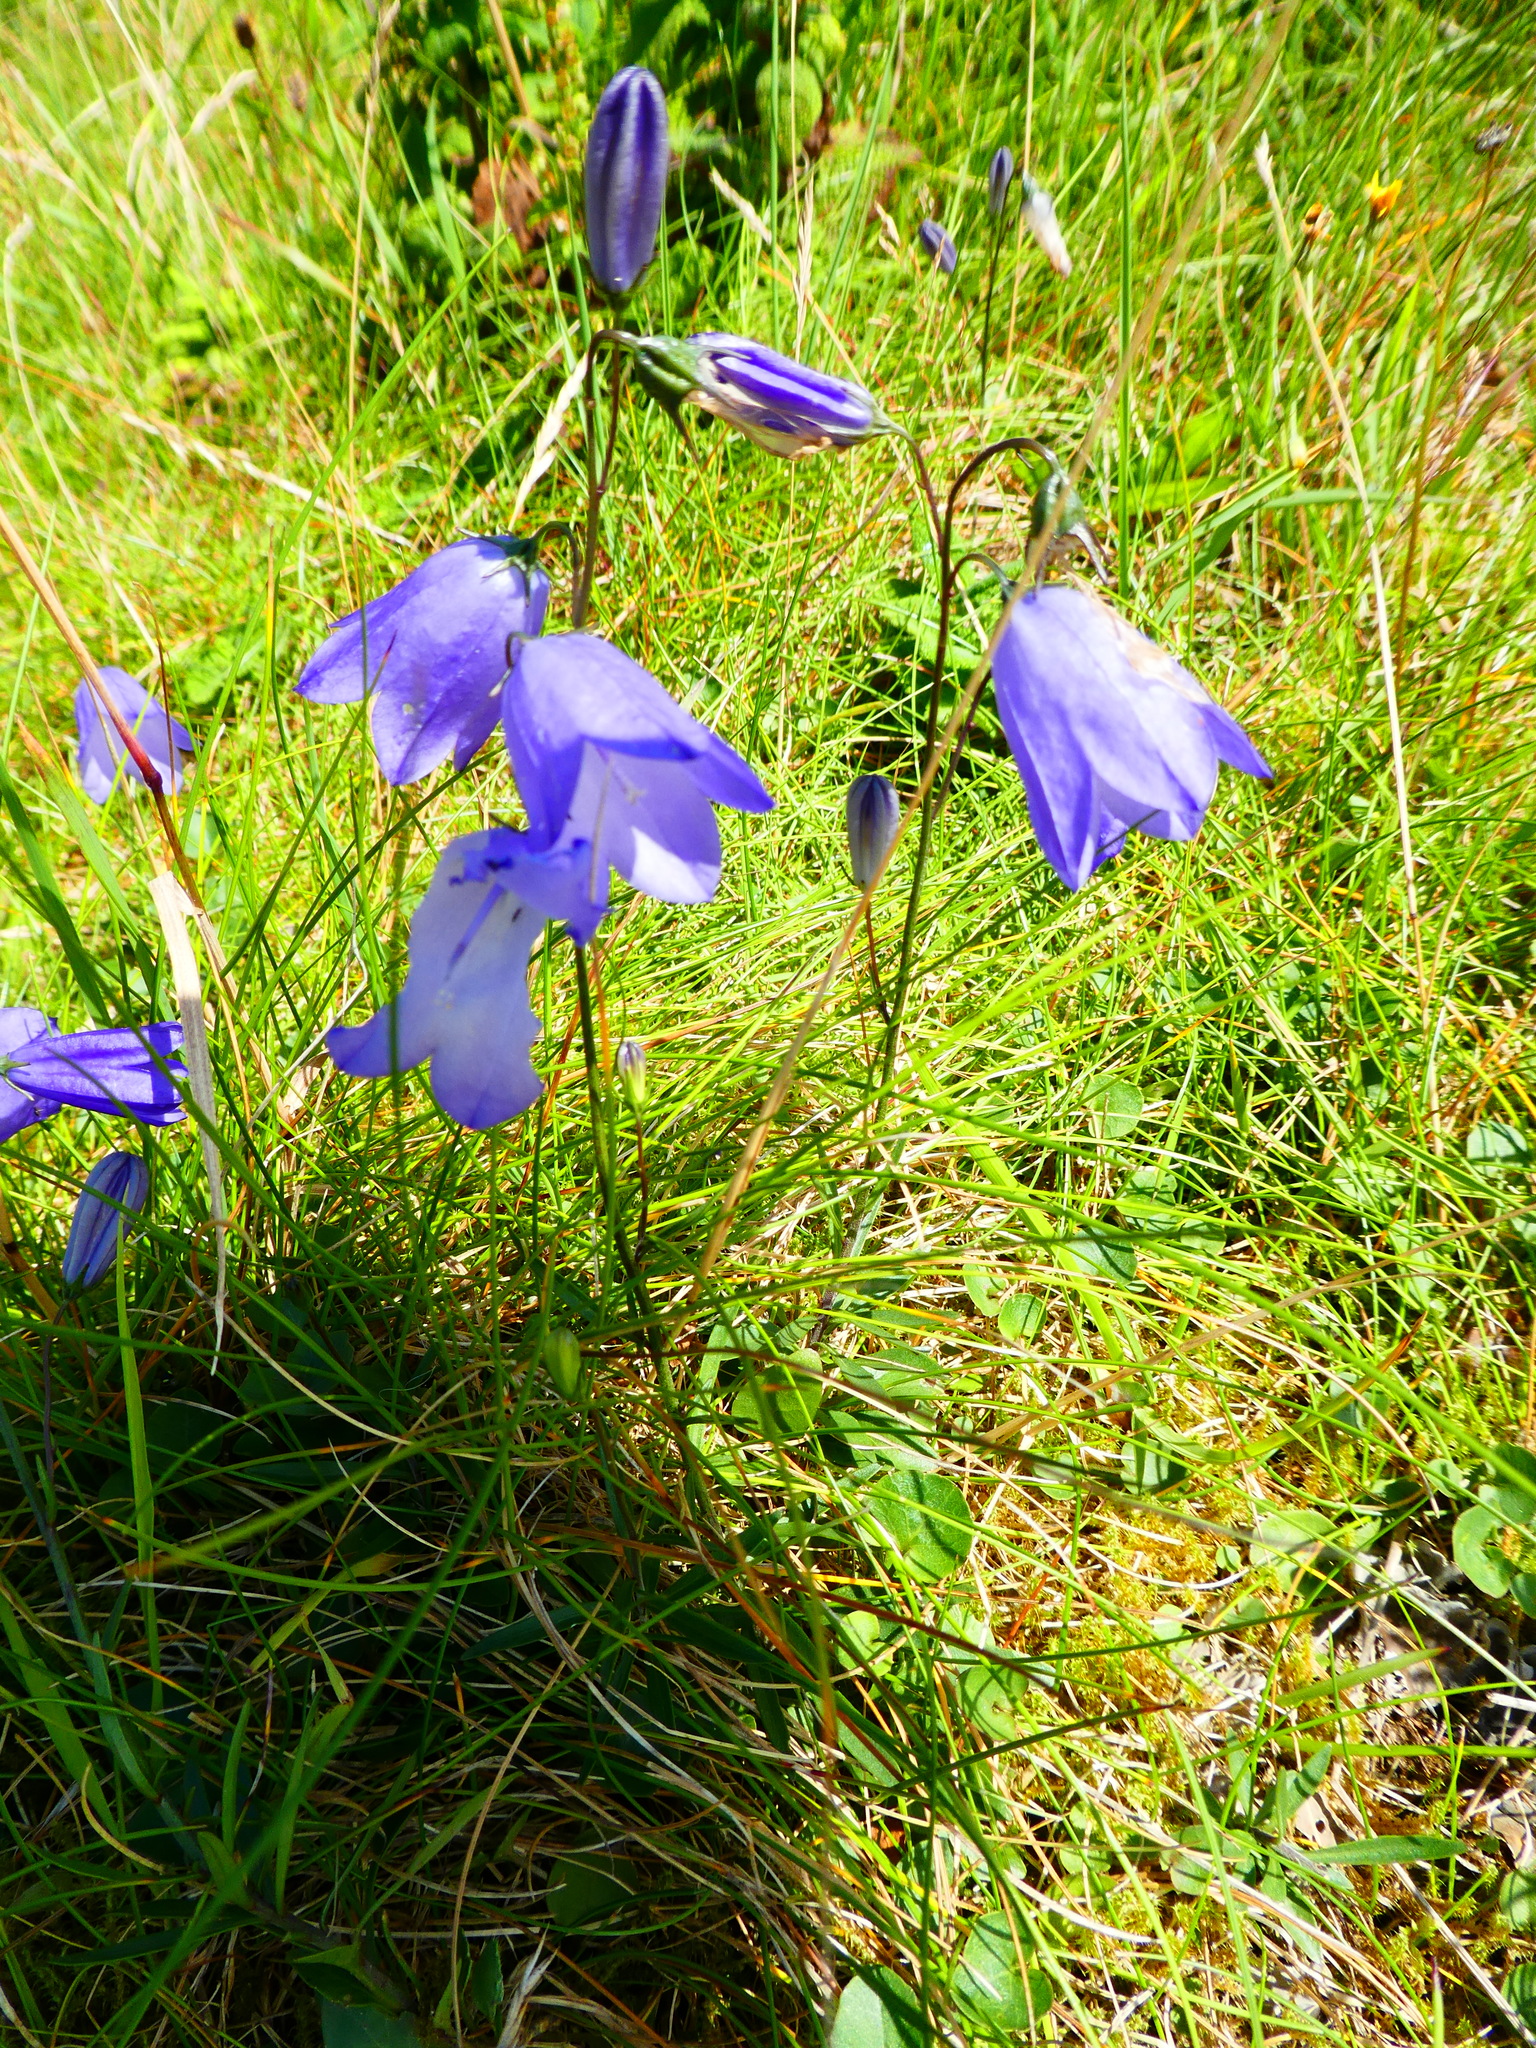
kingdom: Plantae
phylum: Tracheophyta
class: Magnoliopsida
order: Asterales
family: Campanulaceae
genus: Campanula
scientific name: Campanula rotundifolia
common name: Harebell
